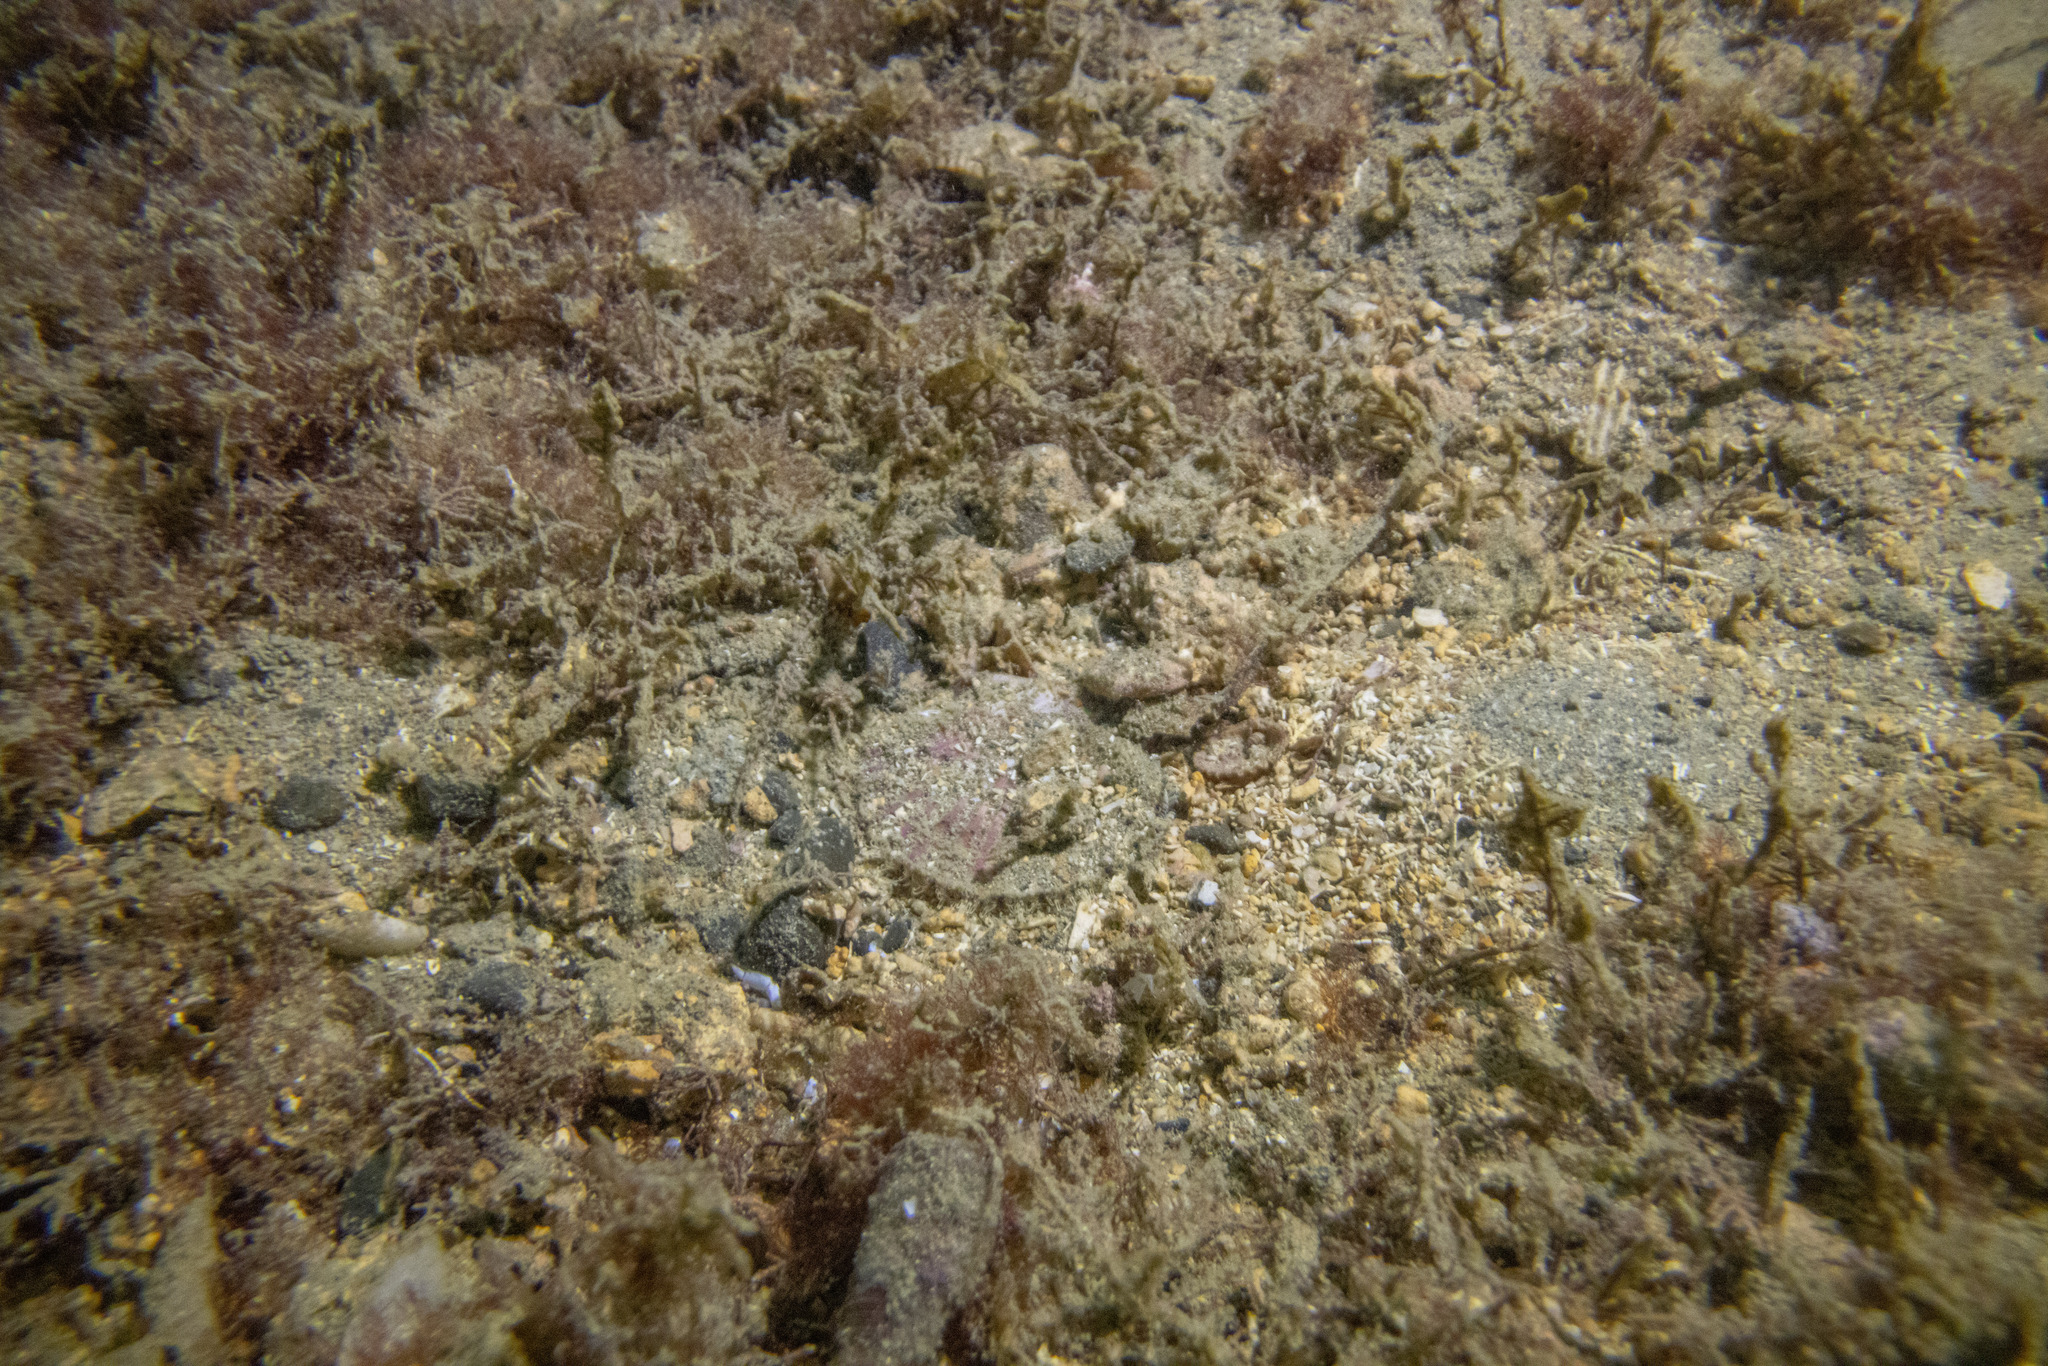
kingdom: Animalia
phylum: Mollusca
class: Bivalvia
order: Pectinida
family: Pectinidae
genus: Pecten
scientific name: Pecten novaezelandiae
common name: New zealand scallop
